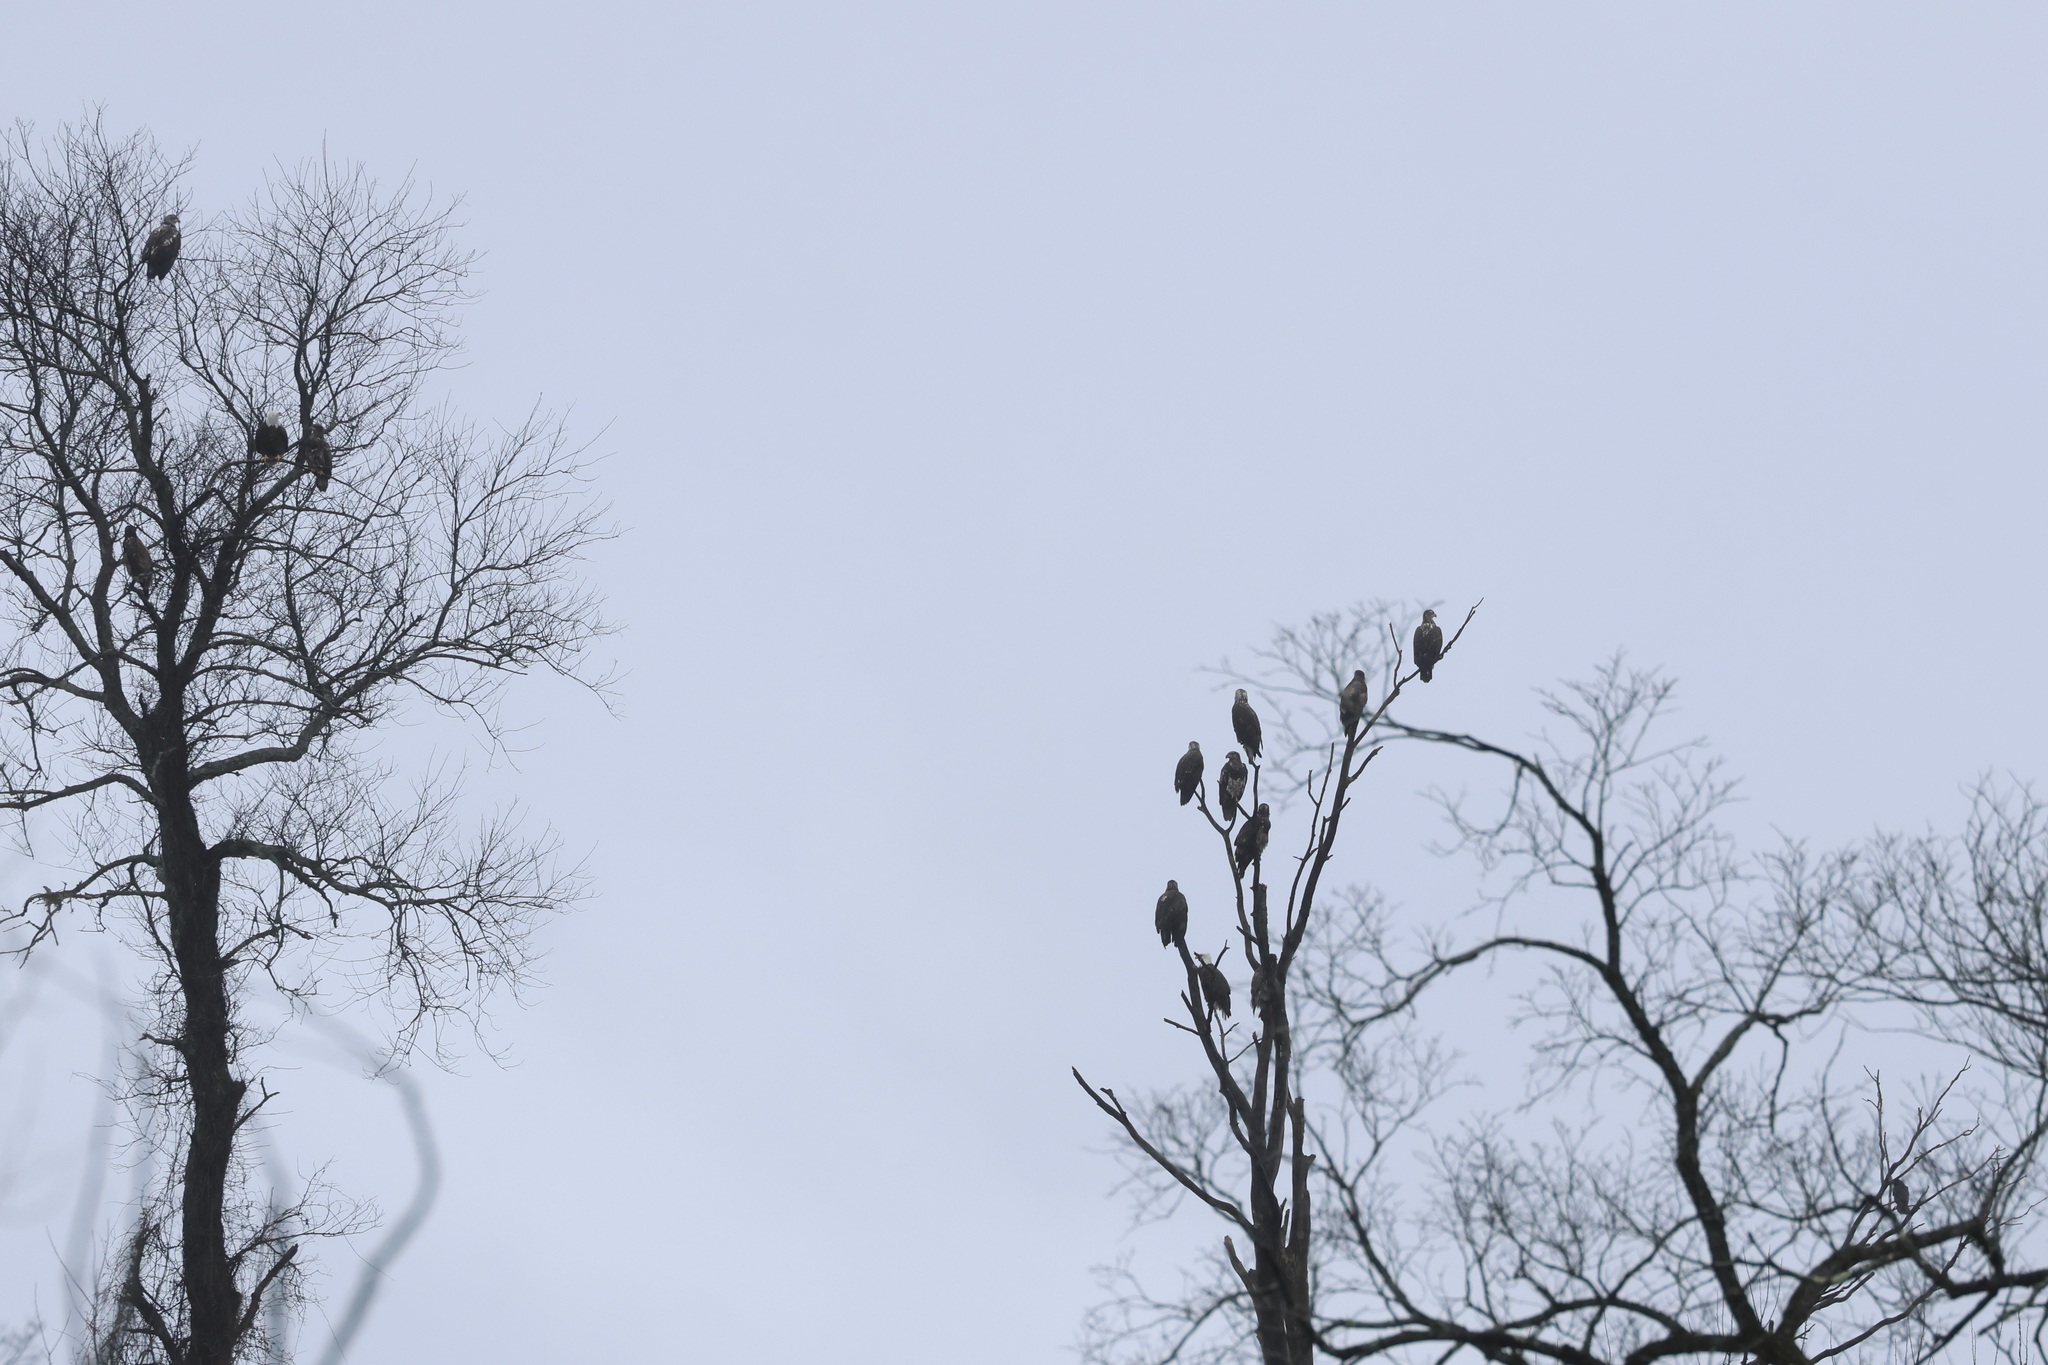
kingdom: Animalia
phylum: Chordata
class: Aves
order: Accipitriformes
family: Accipitridae
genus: Haliaeetus
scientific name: Haliaeetus leucocephalus
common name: Bald eagle
